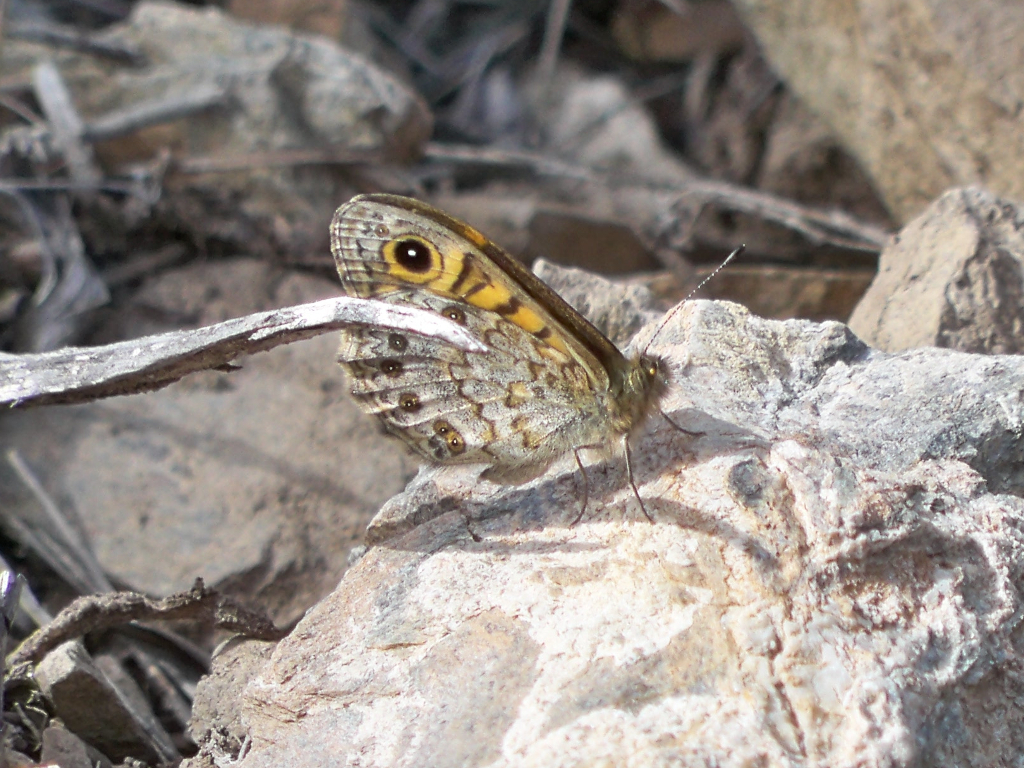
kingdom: Animalia
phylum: Arthropoda
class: Insecta
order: Lepidoptera
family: Nymphalidae
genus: Pararge
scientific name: Pararge Lasiommata megera
